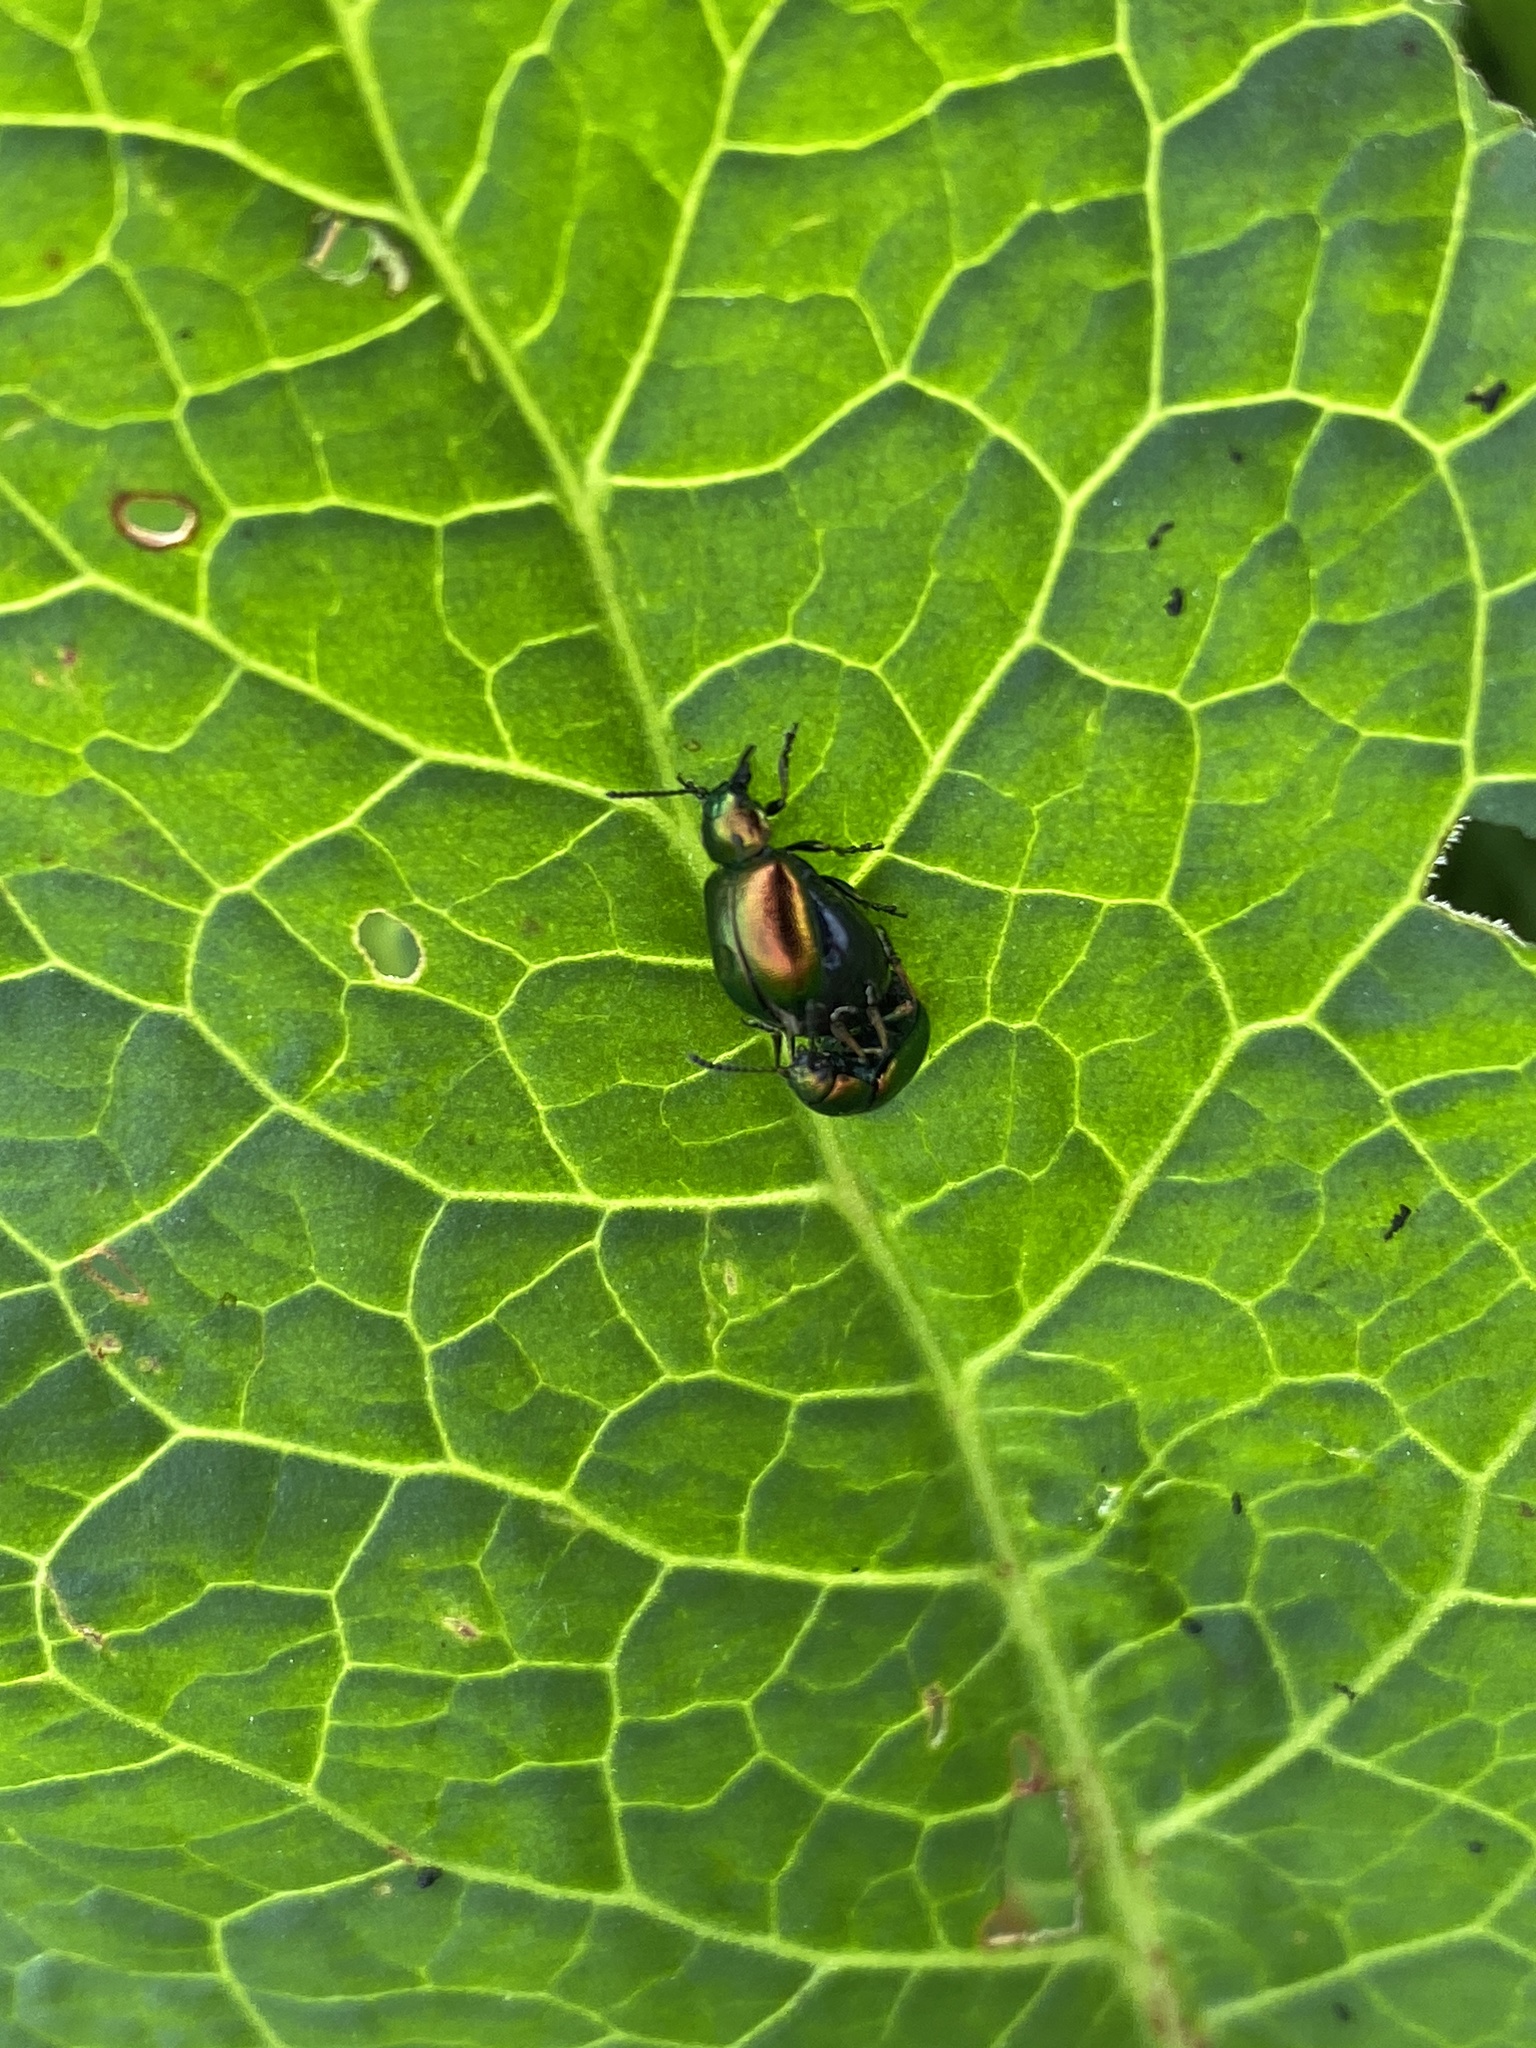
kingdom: Animalia
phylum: Arthropoda
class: Insecta
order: Coleoptera
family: Chrysomelidae
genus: Gastrophysa
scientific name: Gastrophysa viridula
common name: Green dock beetle
